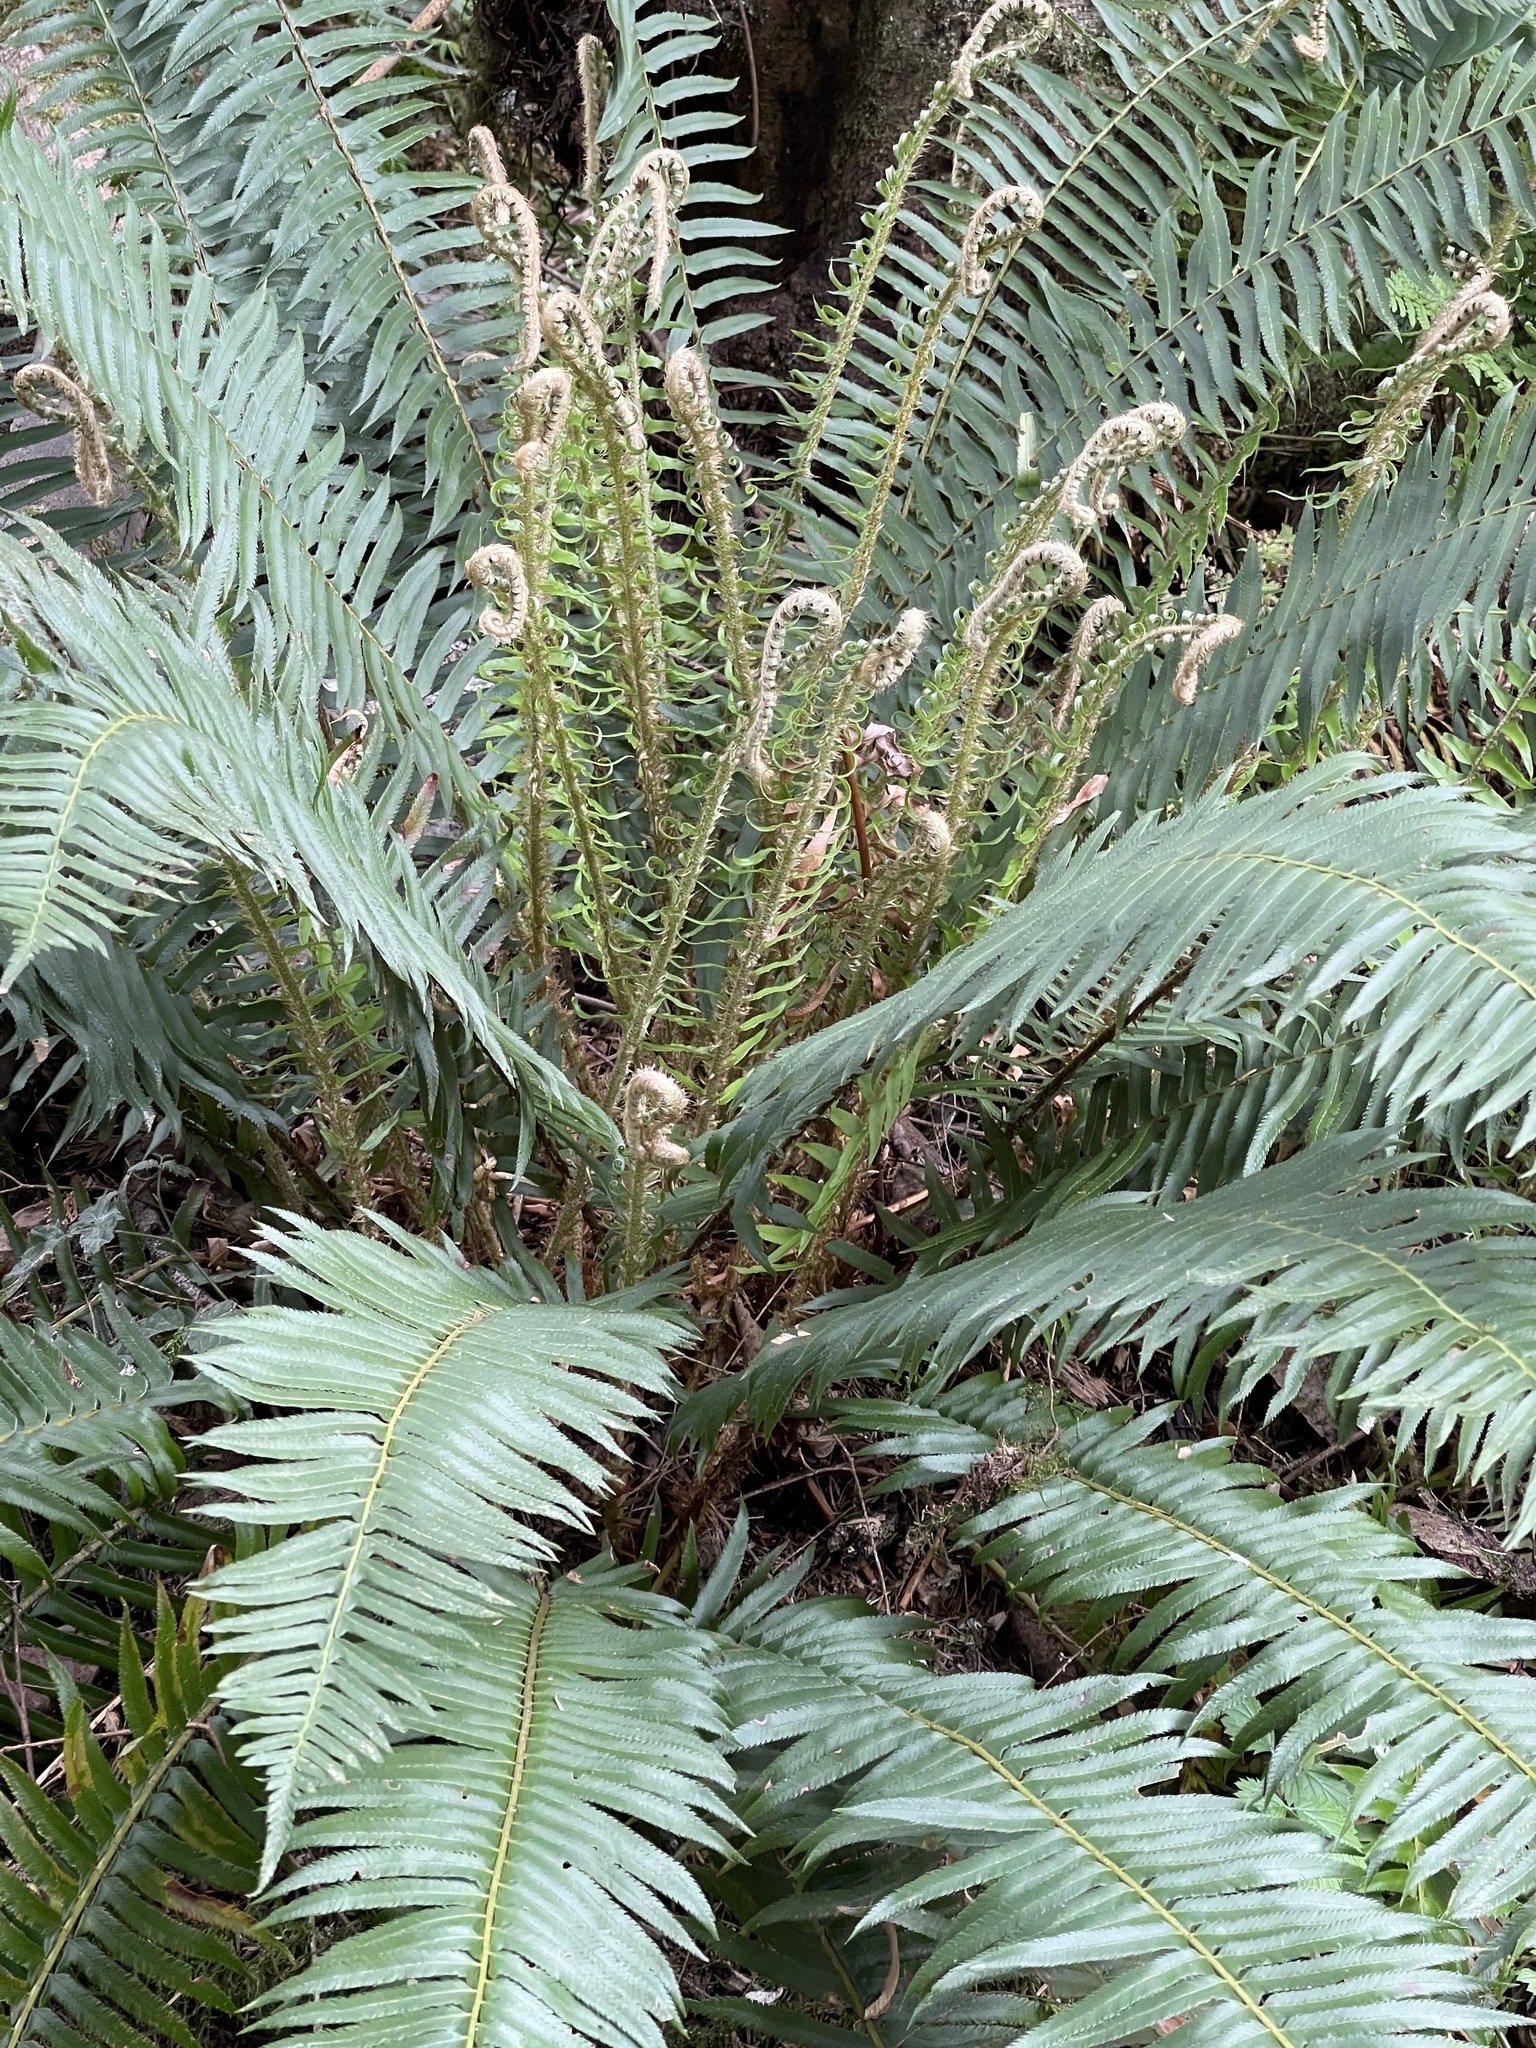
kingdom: Plantae
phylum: Tracheophyta
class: Polypodiopsida
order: Polypodiales
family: Dryopteridaceae
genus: Polystichum
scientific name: Polystichum munitum
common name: Western sword-fern
